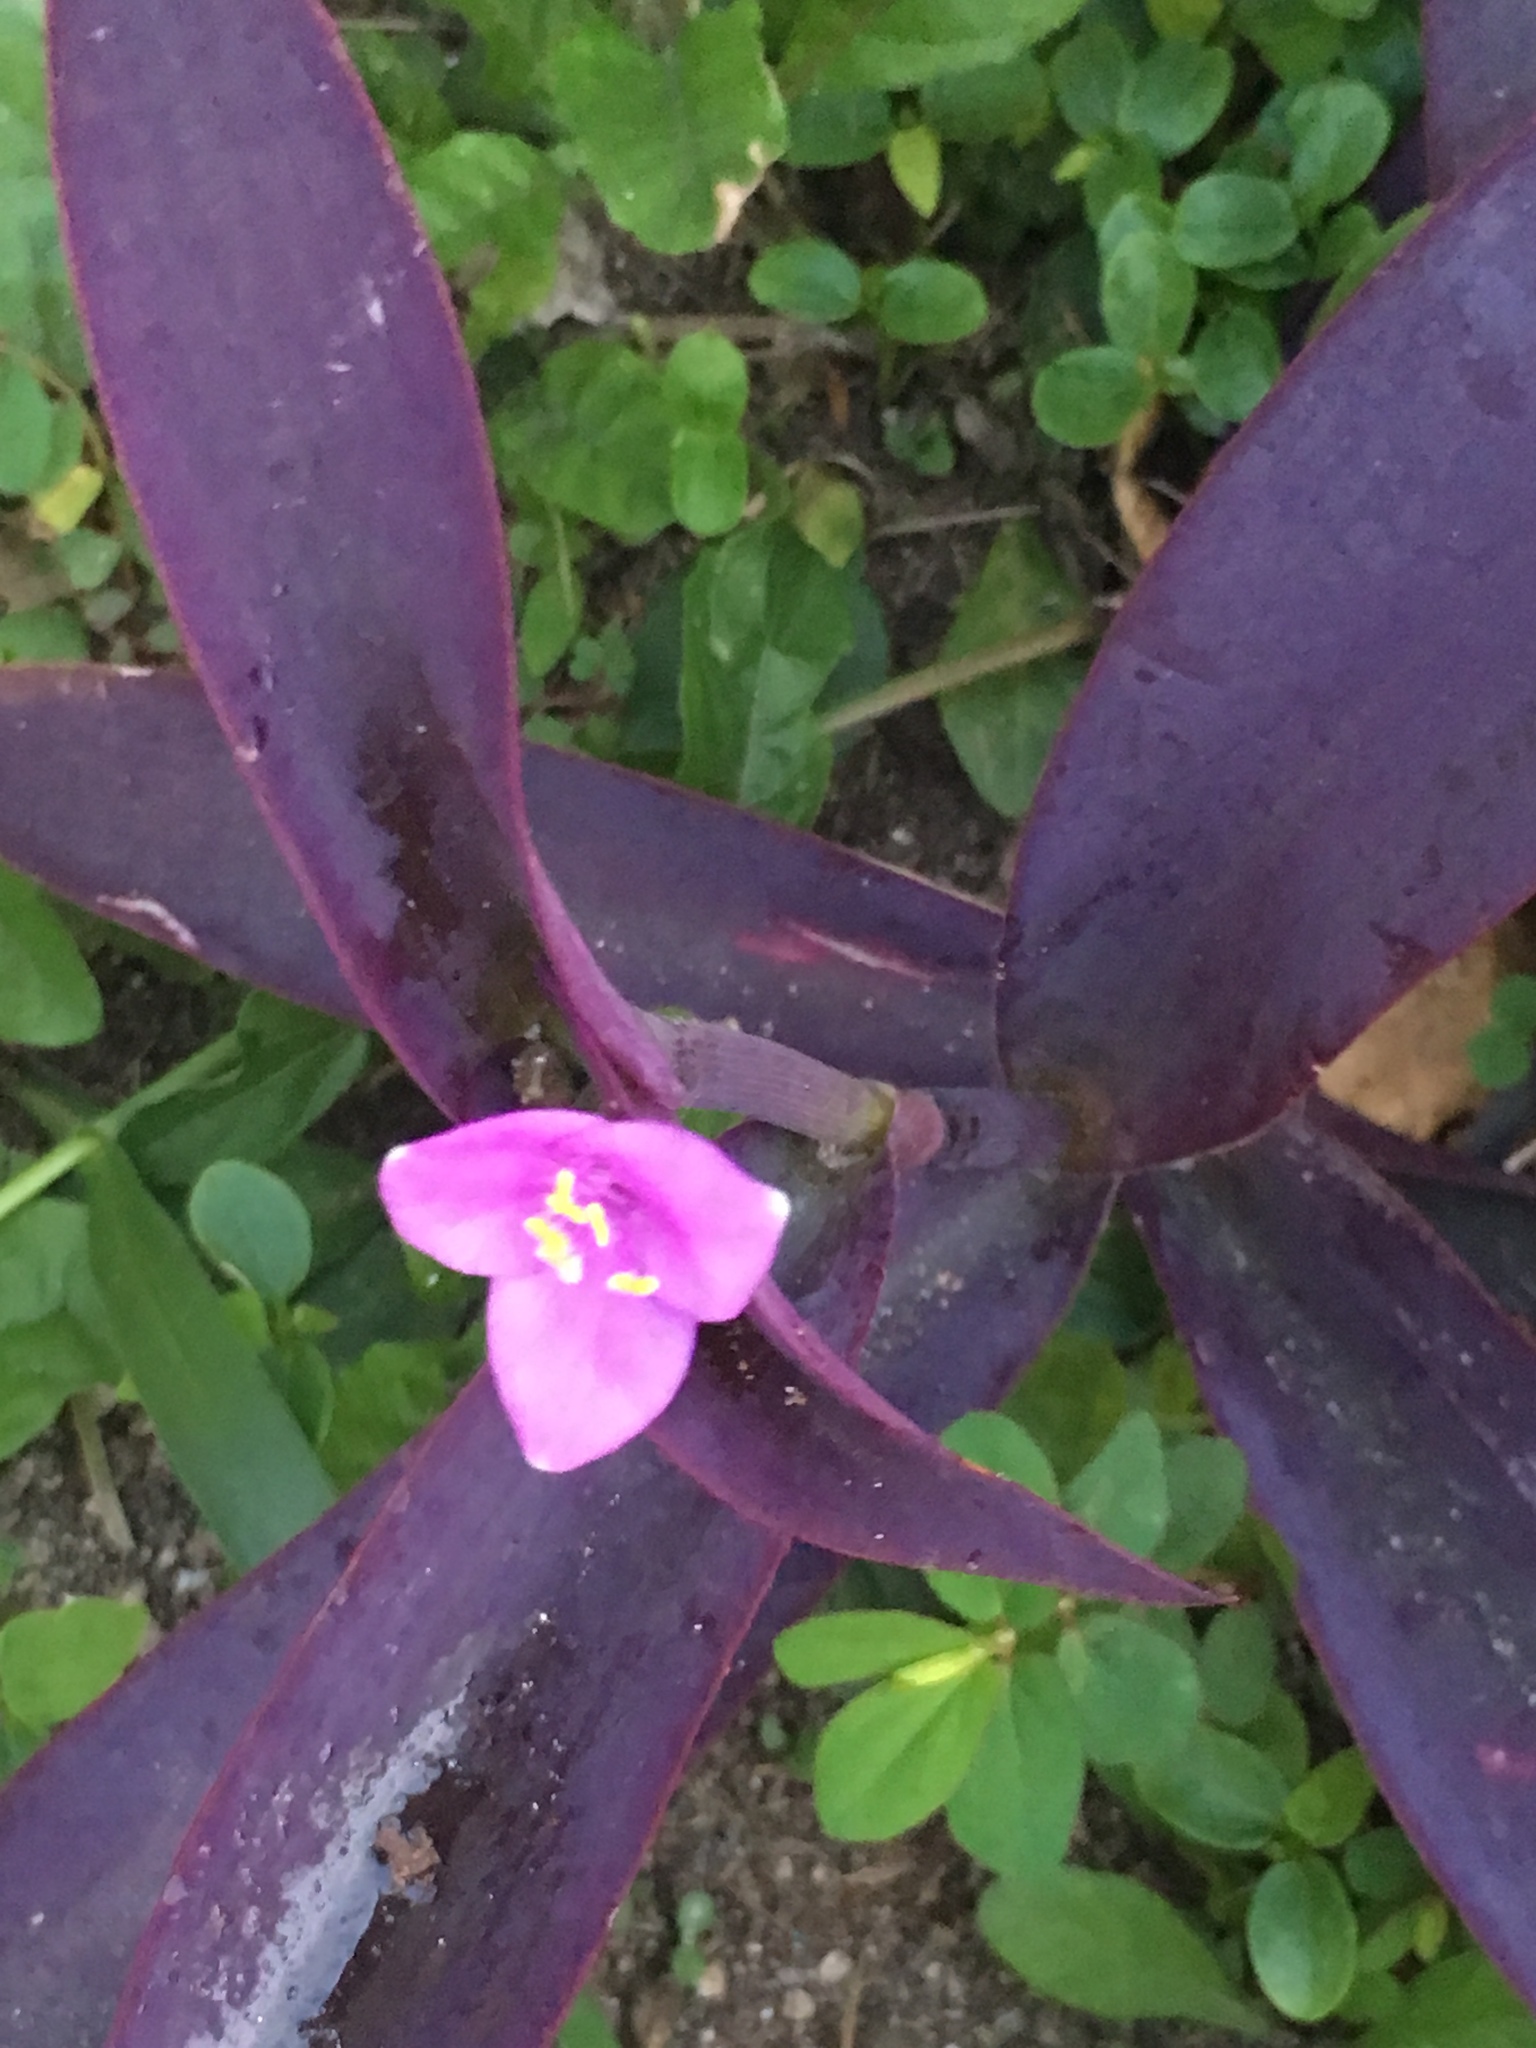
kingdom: Plantae
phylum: Tracheophyta
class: Liliopsida
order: Commelinales
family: Commelinaceae
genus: Tradescantia
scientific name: Tradescantia pallida
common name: Purpleheart
